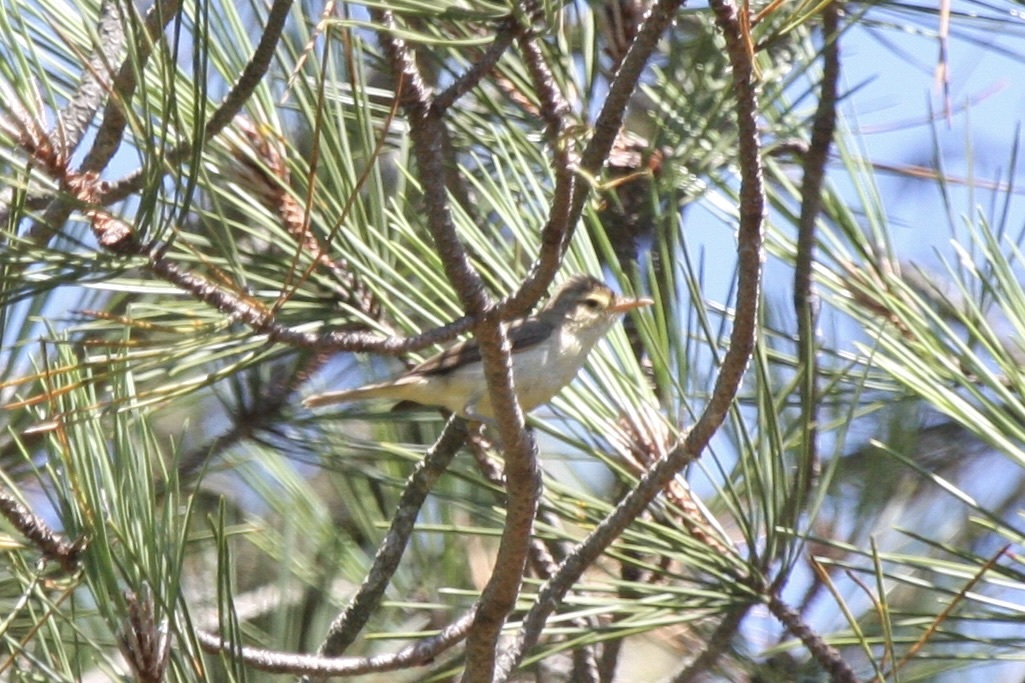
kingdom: Animalia
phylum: Chordata
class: Aves
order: Passeriformes
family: Acrocephalidae
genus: Hippolais
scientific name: Hippolais polyglotta
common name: Melodious warbler
